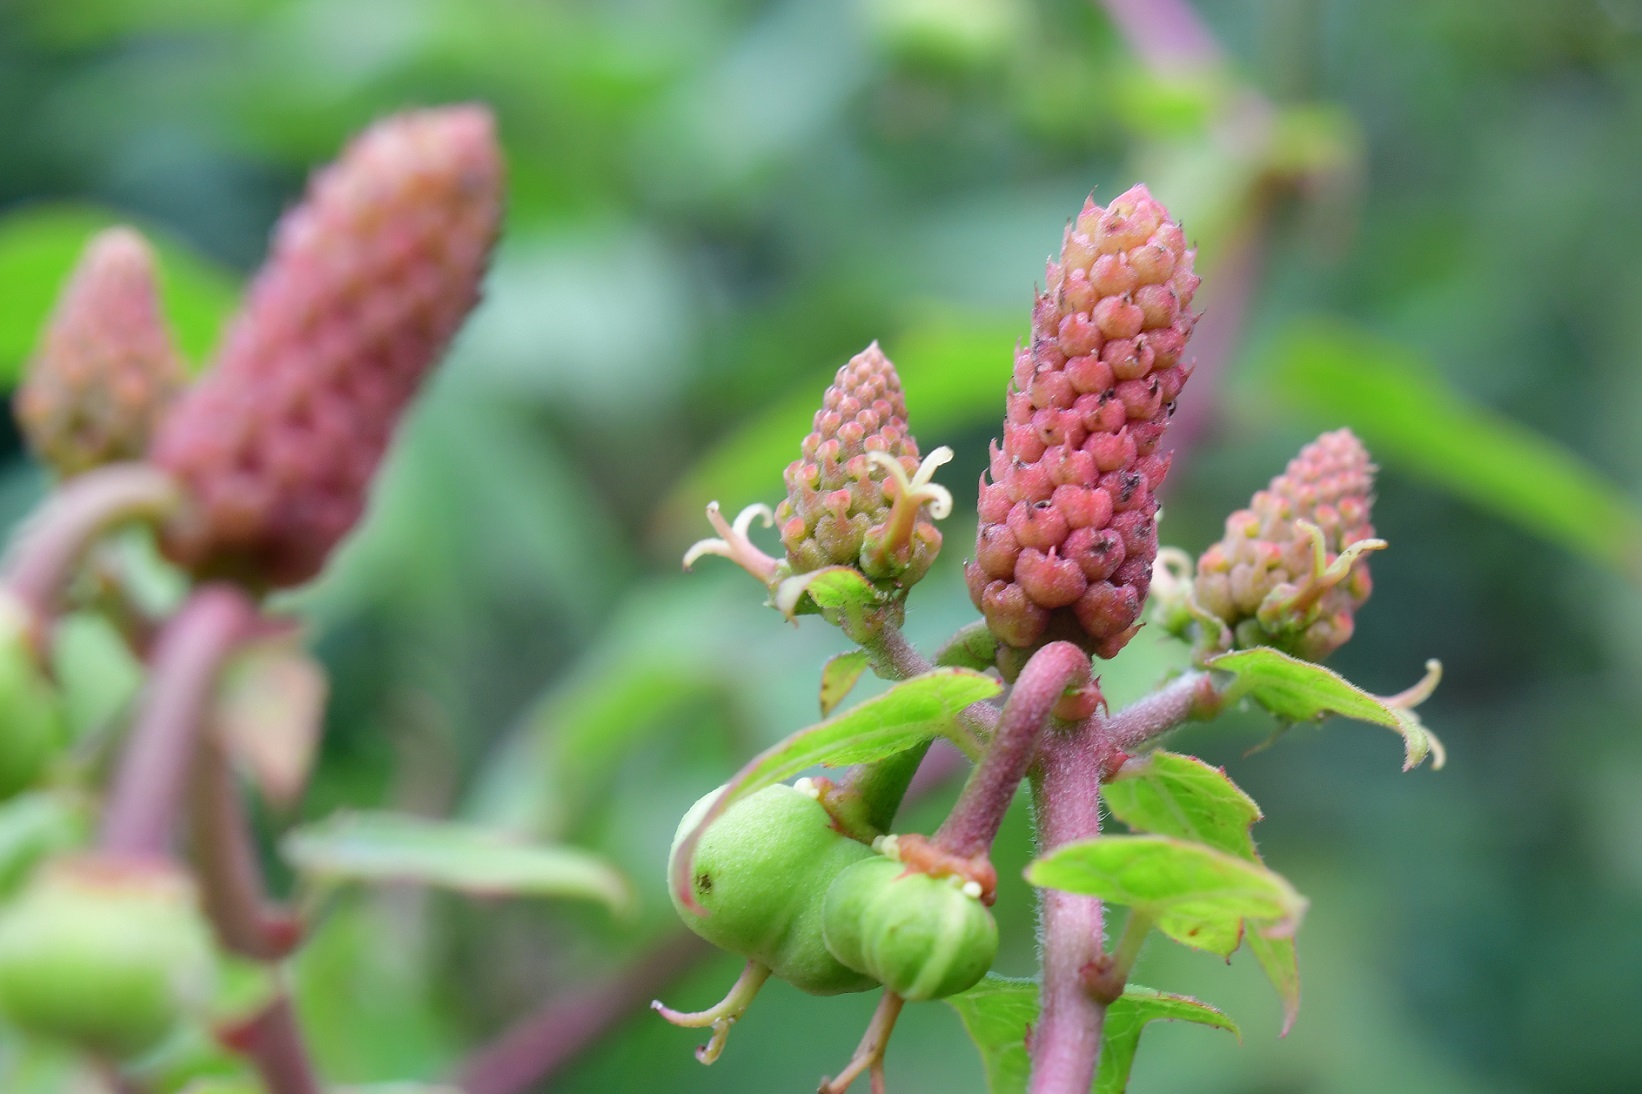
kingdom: Plantae
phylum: Tracheophyta
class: Magnoliopsida
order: Malpighiales
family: Euphorbiaceae
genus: Dalembertia
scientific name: Dalembertia triangularis
